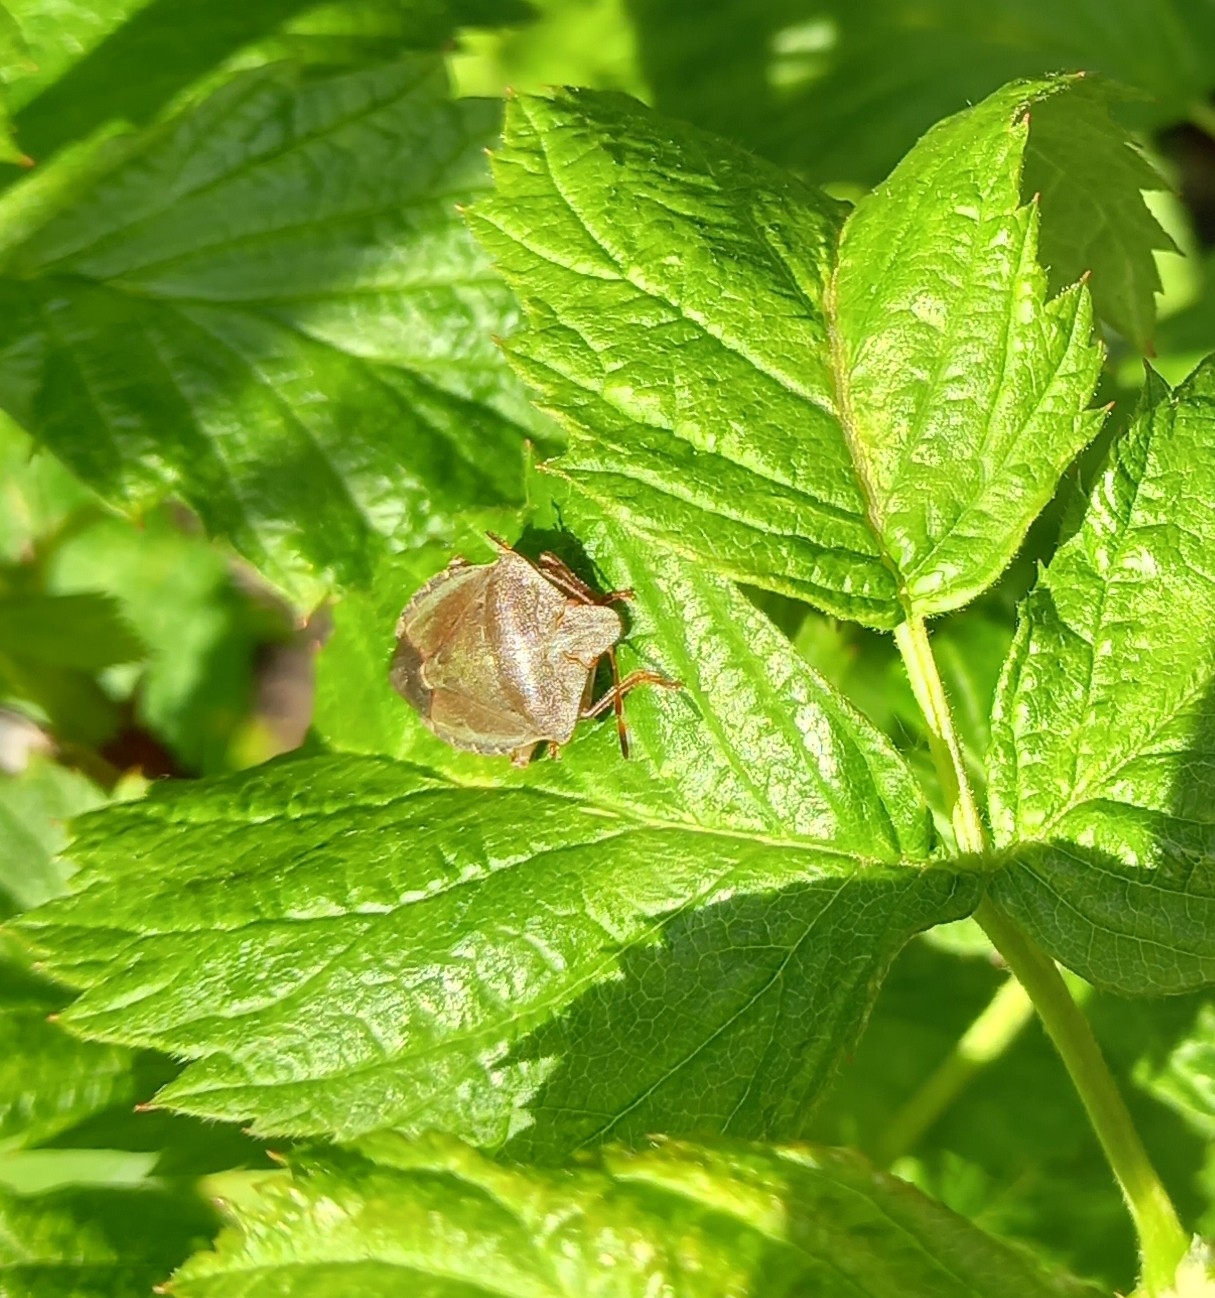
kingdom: Animalia
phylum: Arthropoda
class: Insecta
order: Hemiptera
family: Pentatomidae
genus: Palomena
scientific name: Palomena prasina
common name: Green shieldbug
